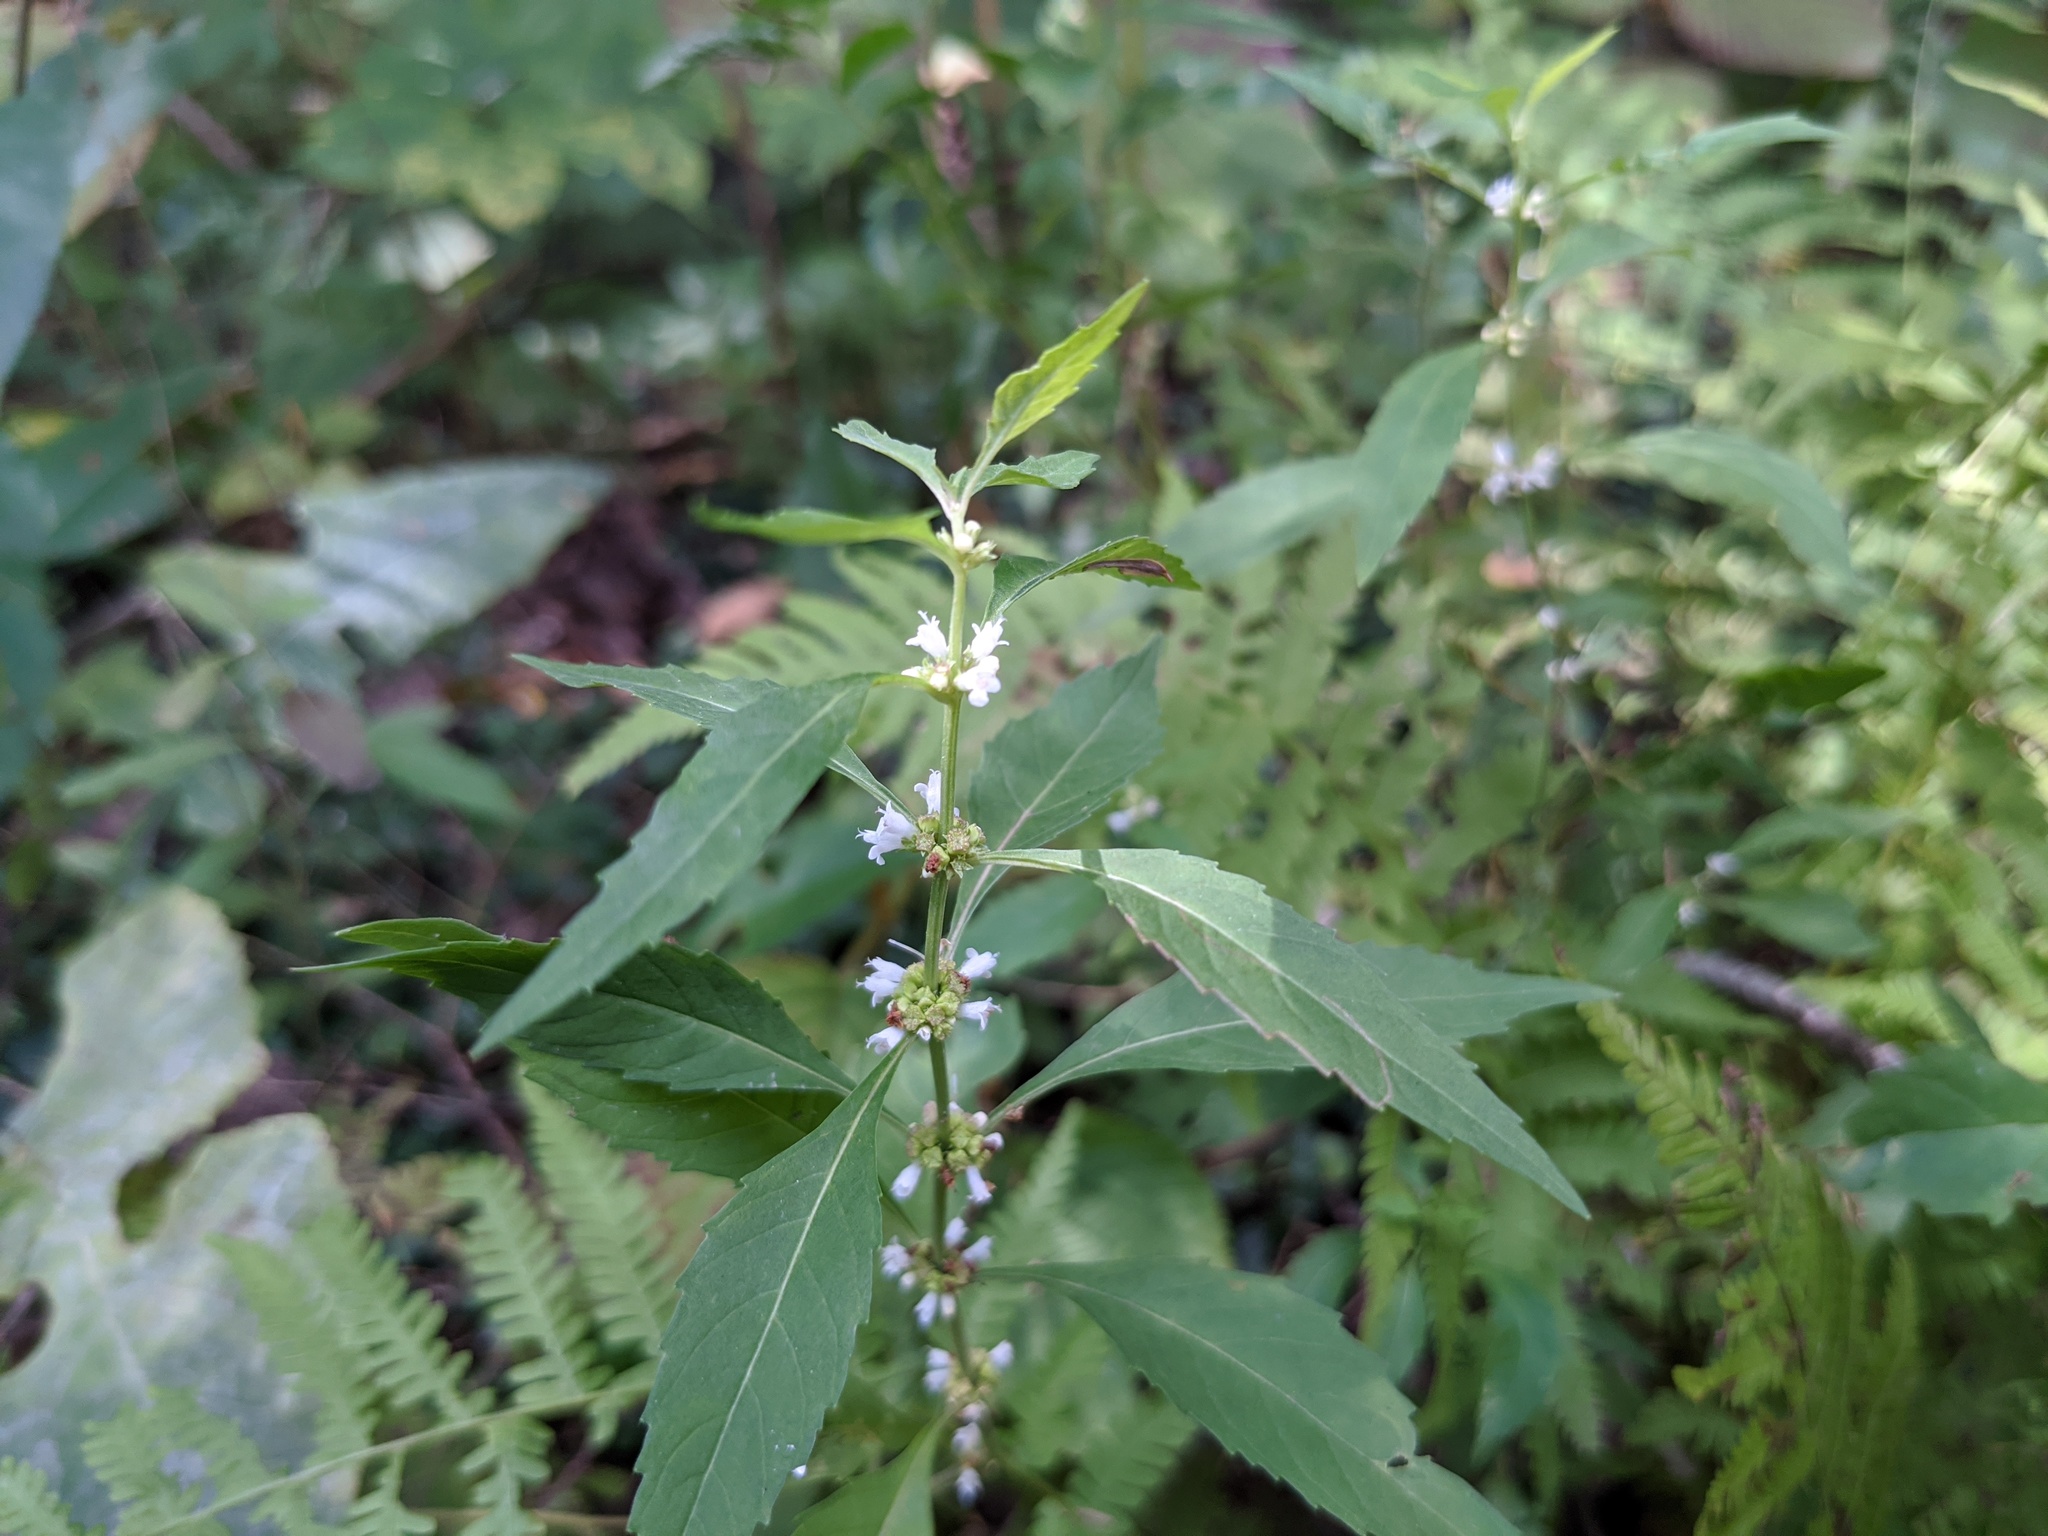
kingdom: Plantae
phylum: Tracheophyta
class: Magnoliopsida
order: Lamiales
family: Lamiaceae
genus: Lycopus
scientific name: Lycopus uniflorus
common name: Northern bugleweed
